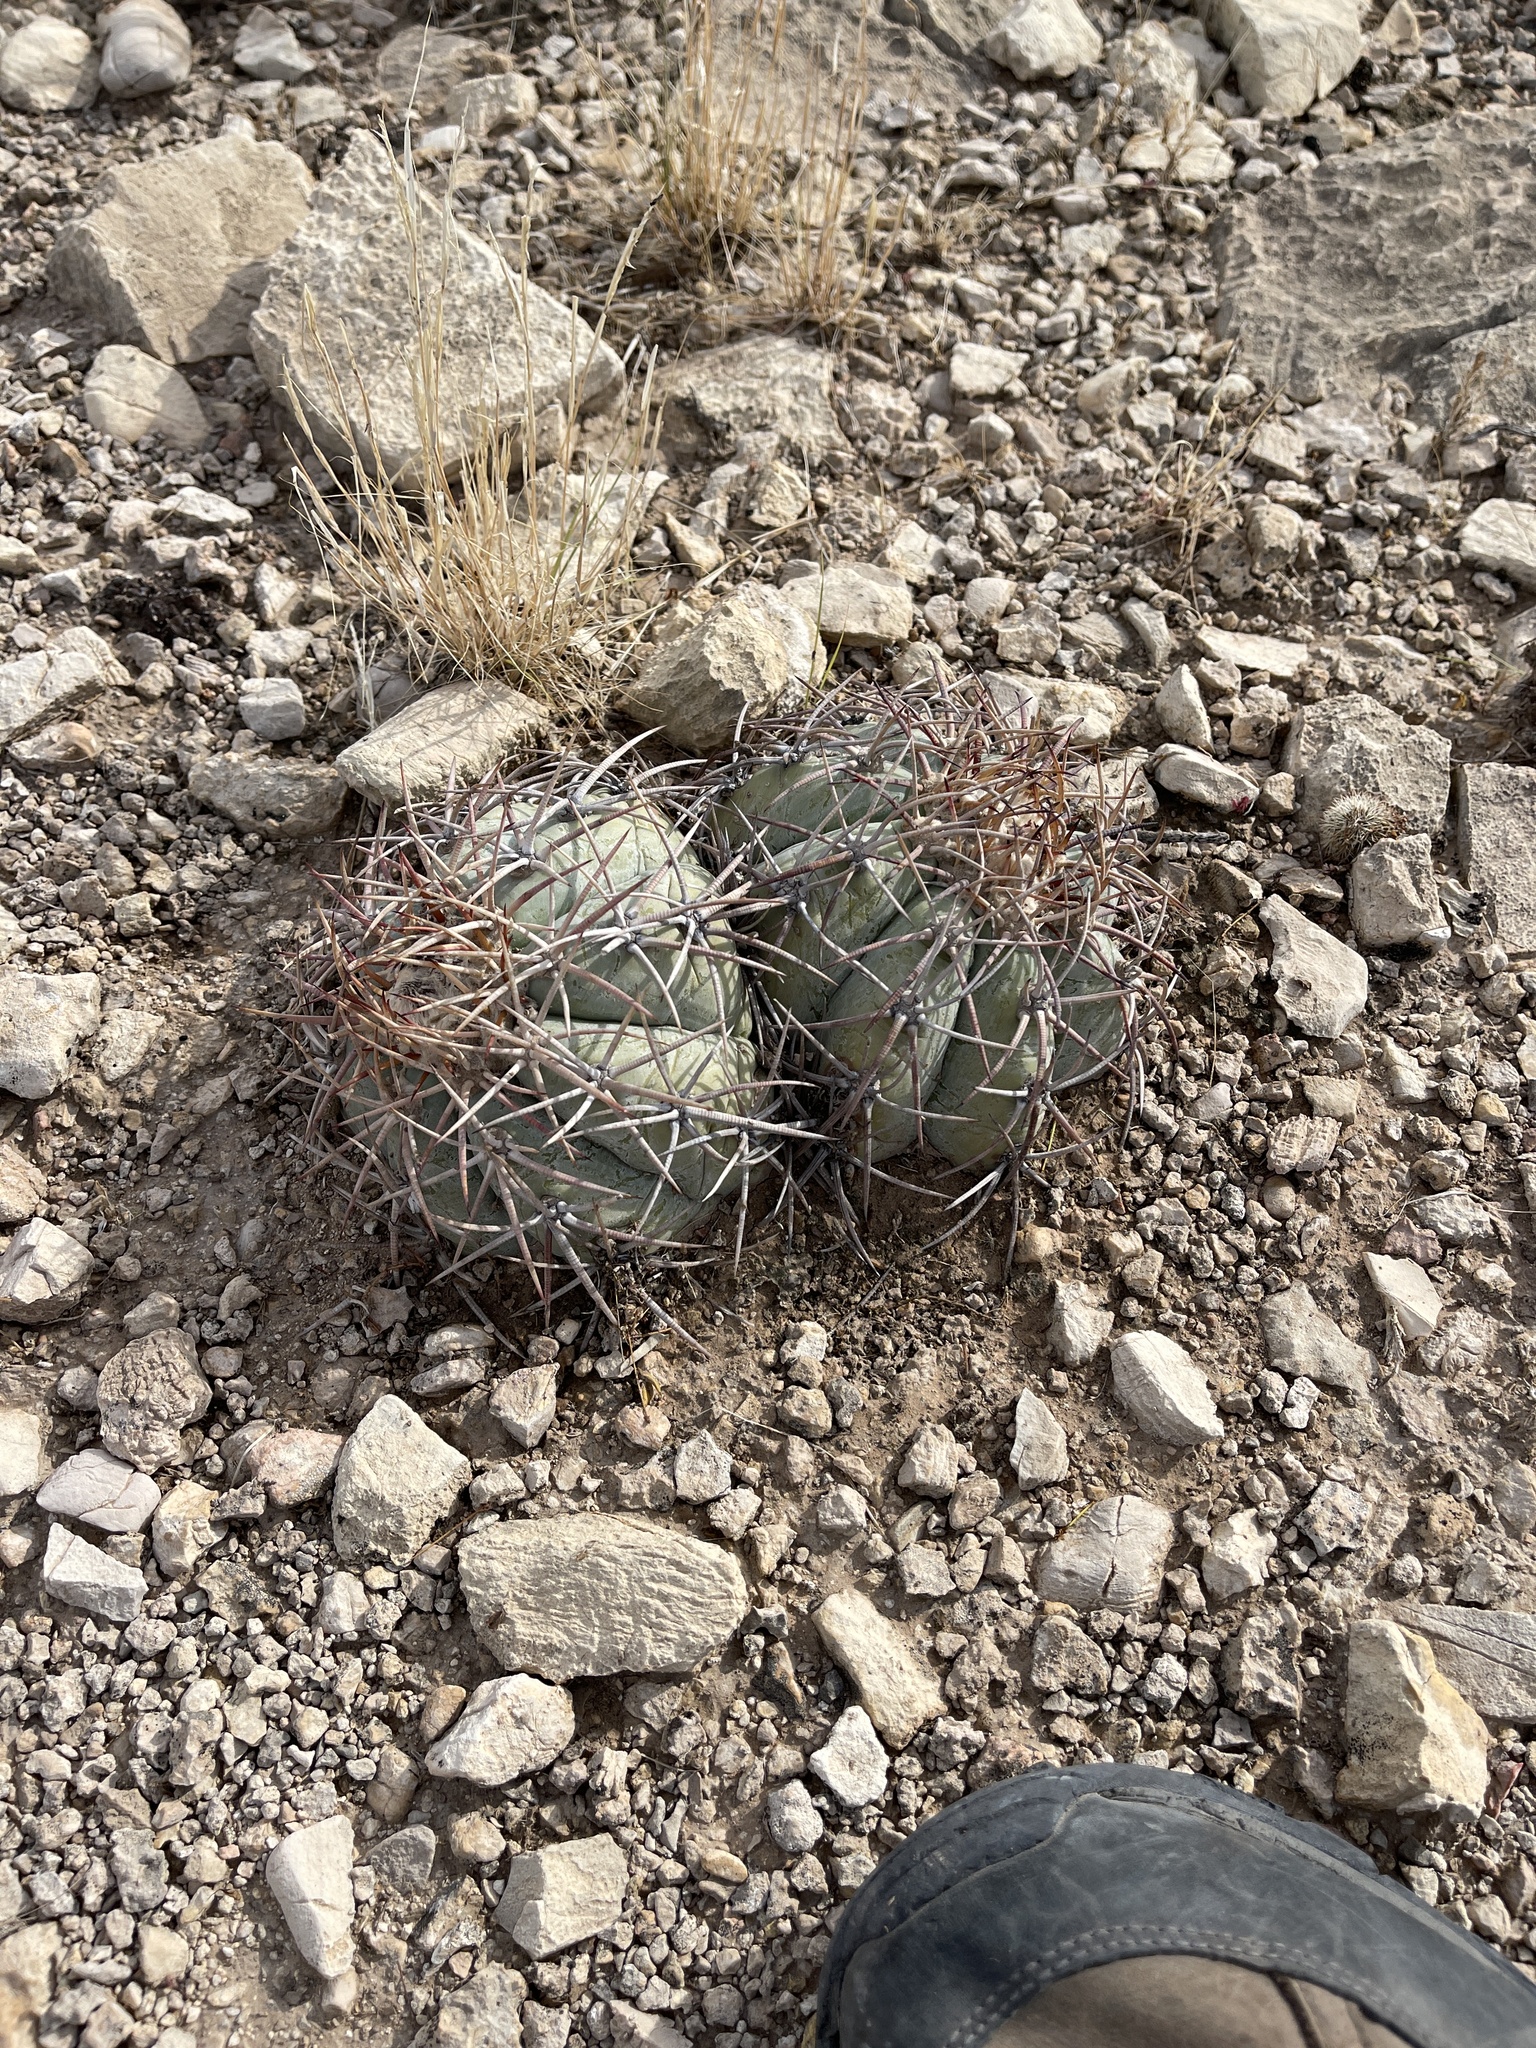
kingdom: Plantae
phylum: Tracheophyta
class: Magnoliopsida
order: Caryophyllales
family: Cactaceae
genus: Echinocactus
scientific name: Echinocactus horizonthalonius
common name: Devilshead
